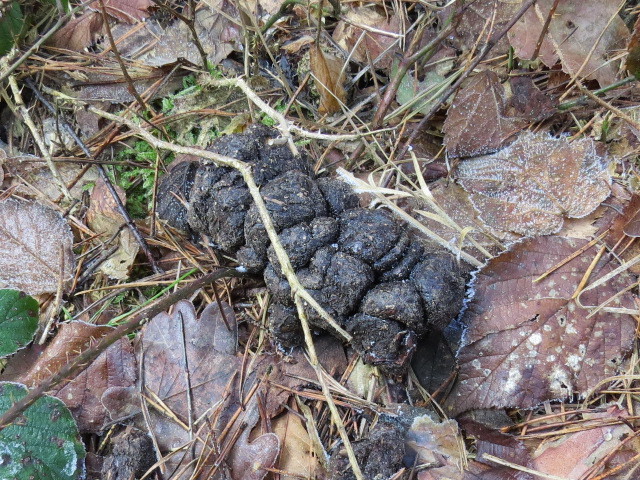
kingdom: Animalia
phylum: Chordata
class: Mammalia
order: Artiodactyla
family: Suidae
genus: Sus
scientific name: Sus scrofa
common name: Wild boar
